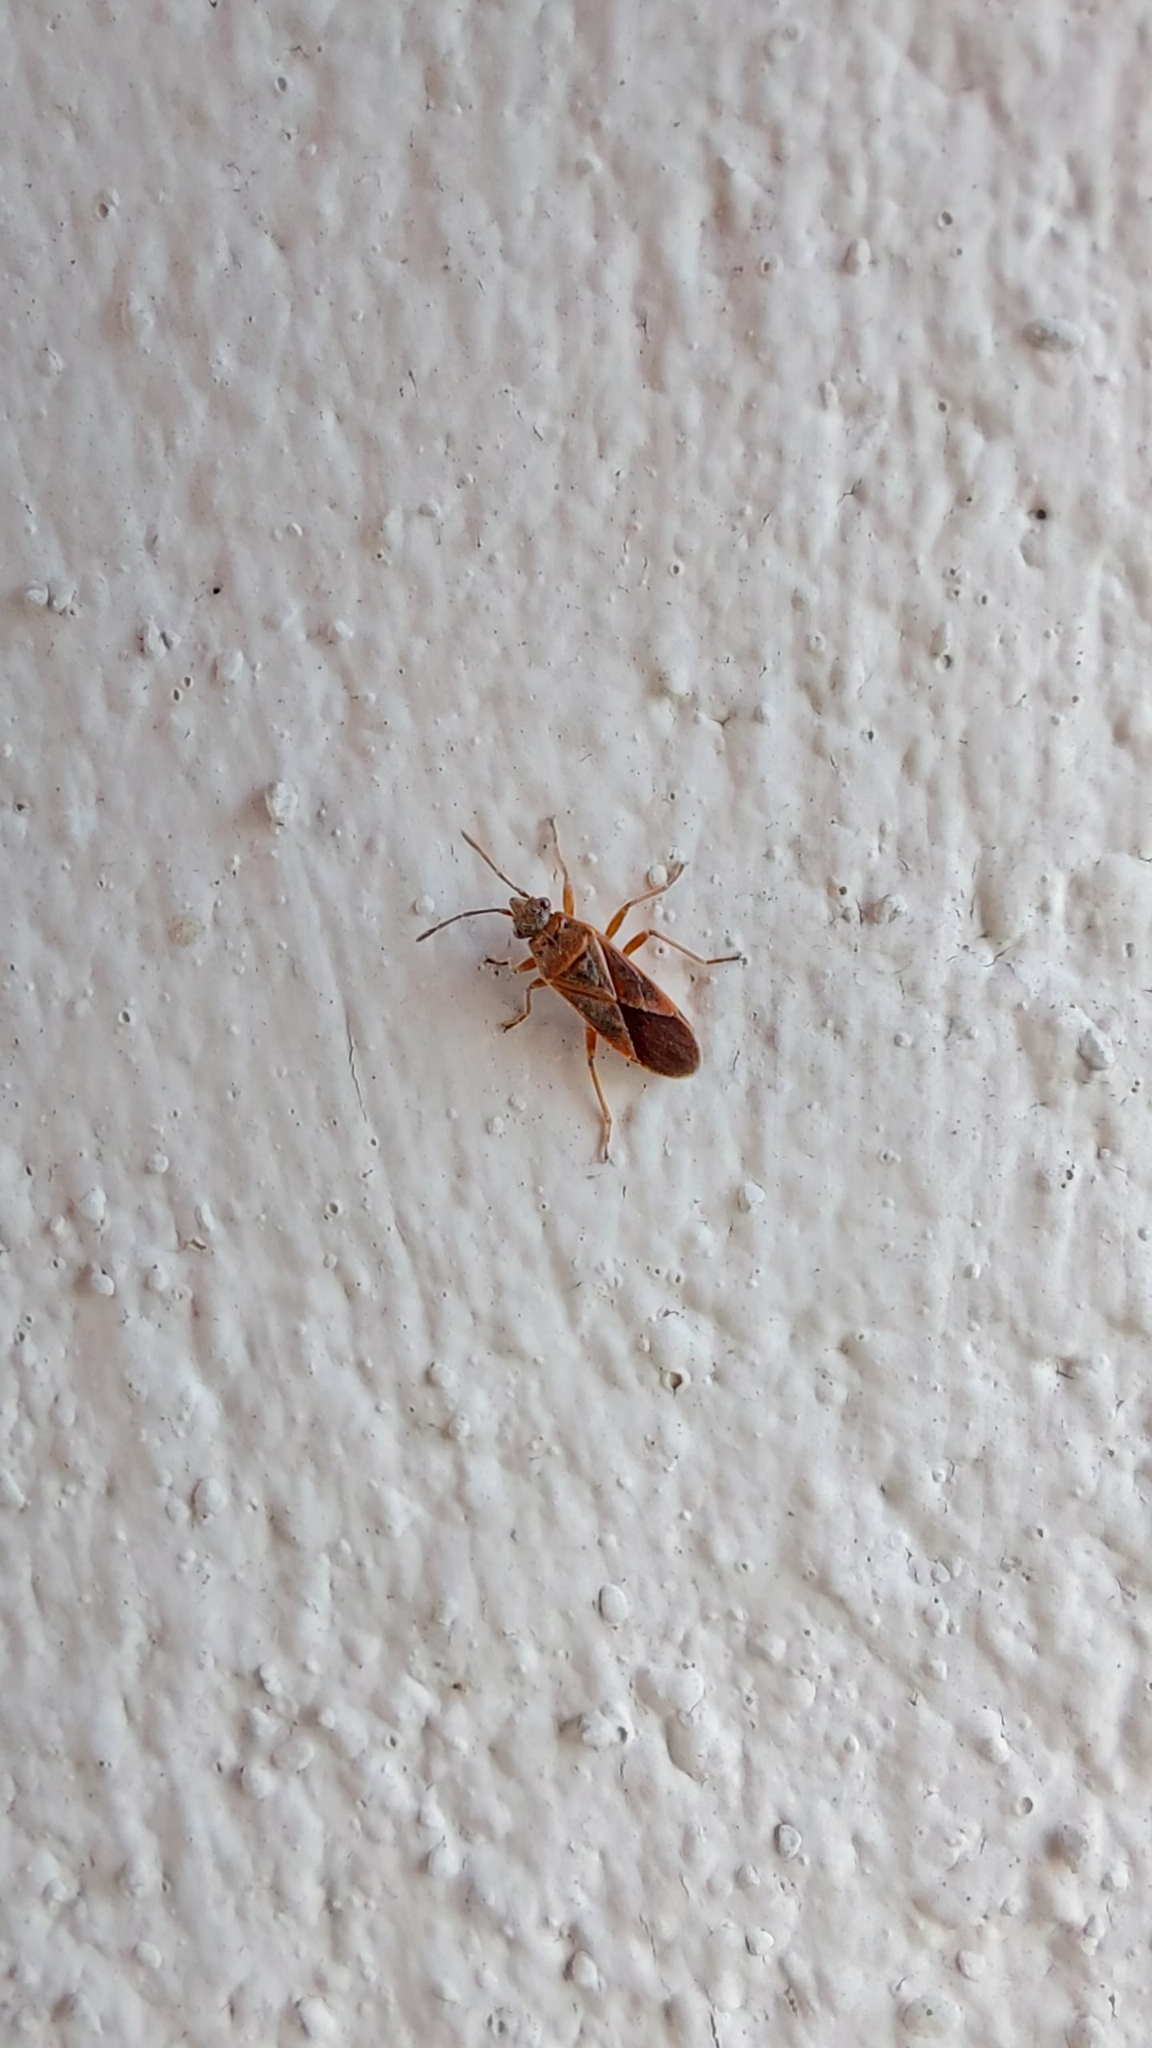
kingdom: Animalia
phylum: Arthropoda
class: Insecta
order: Hemiptera
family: Lygaeidae
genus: Arocatus
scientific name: Arocatus roeselii
